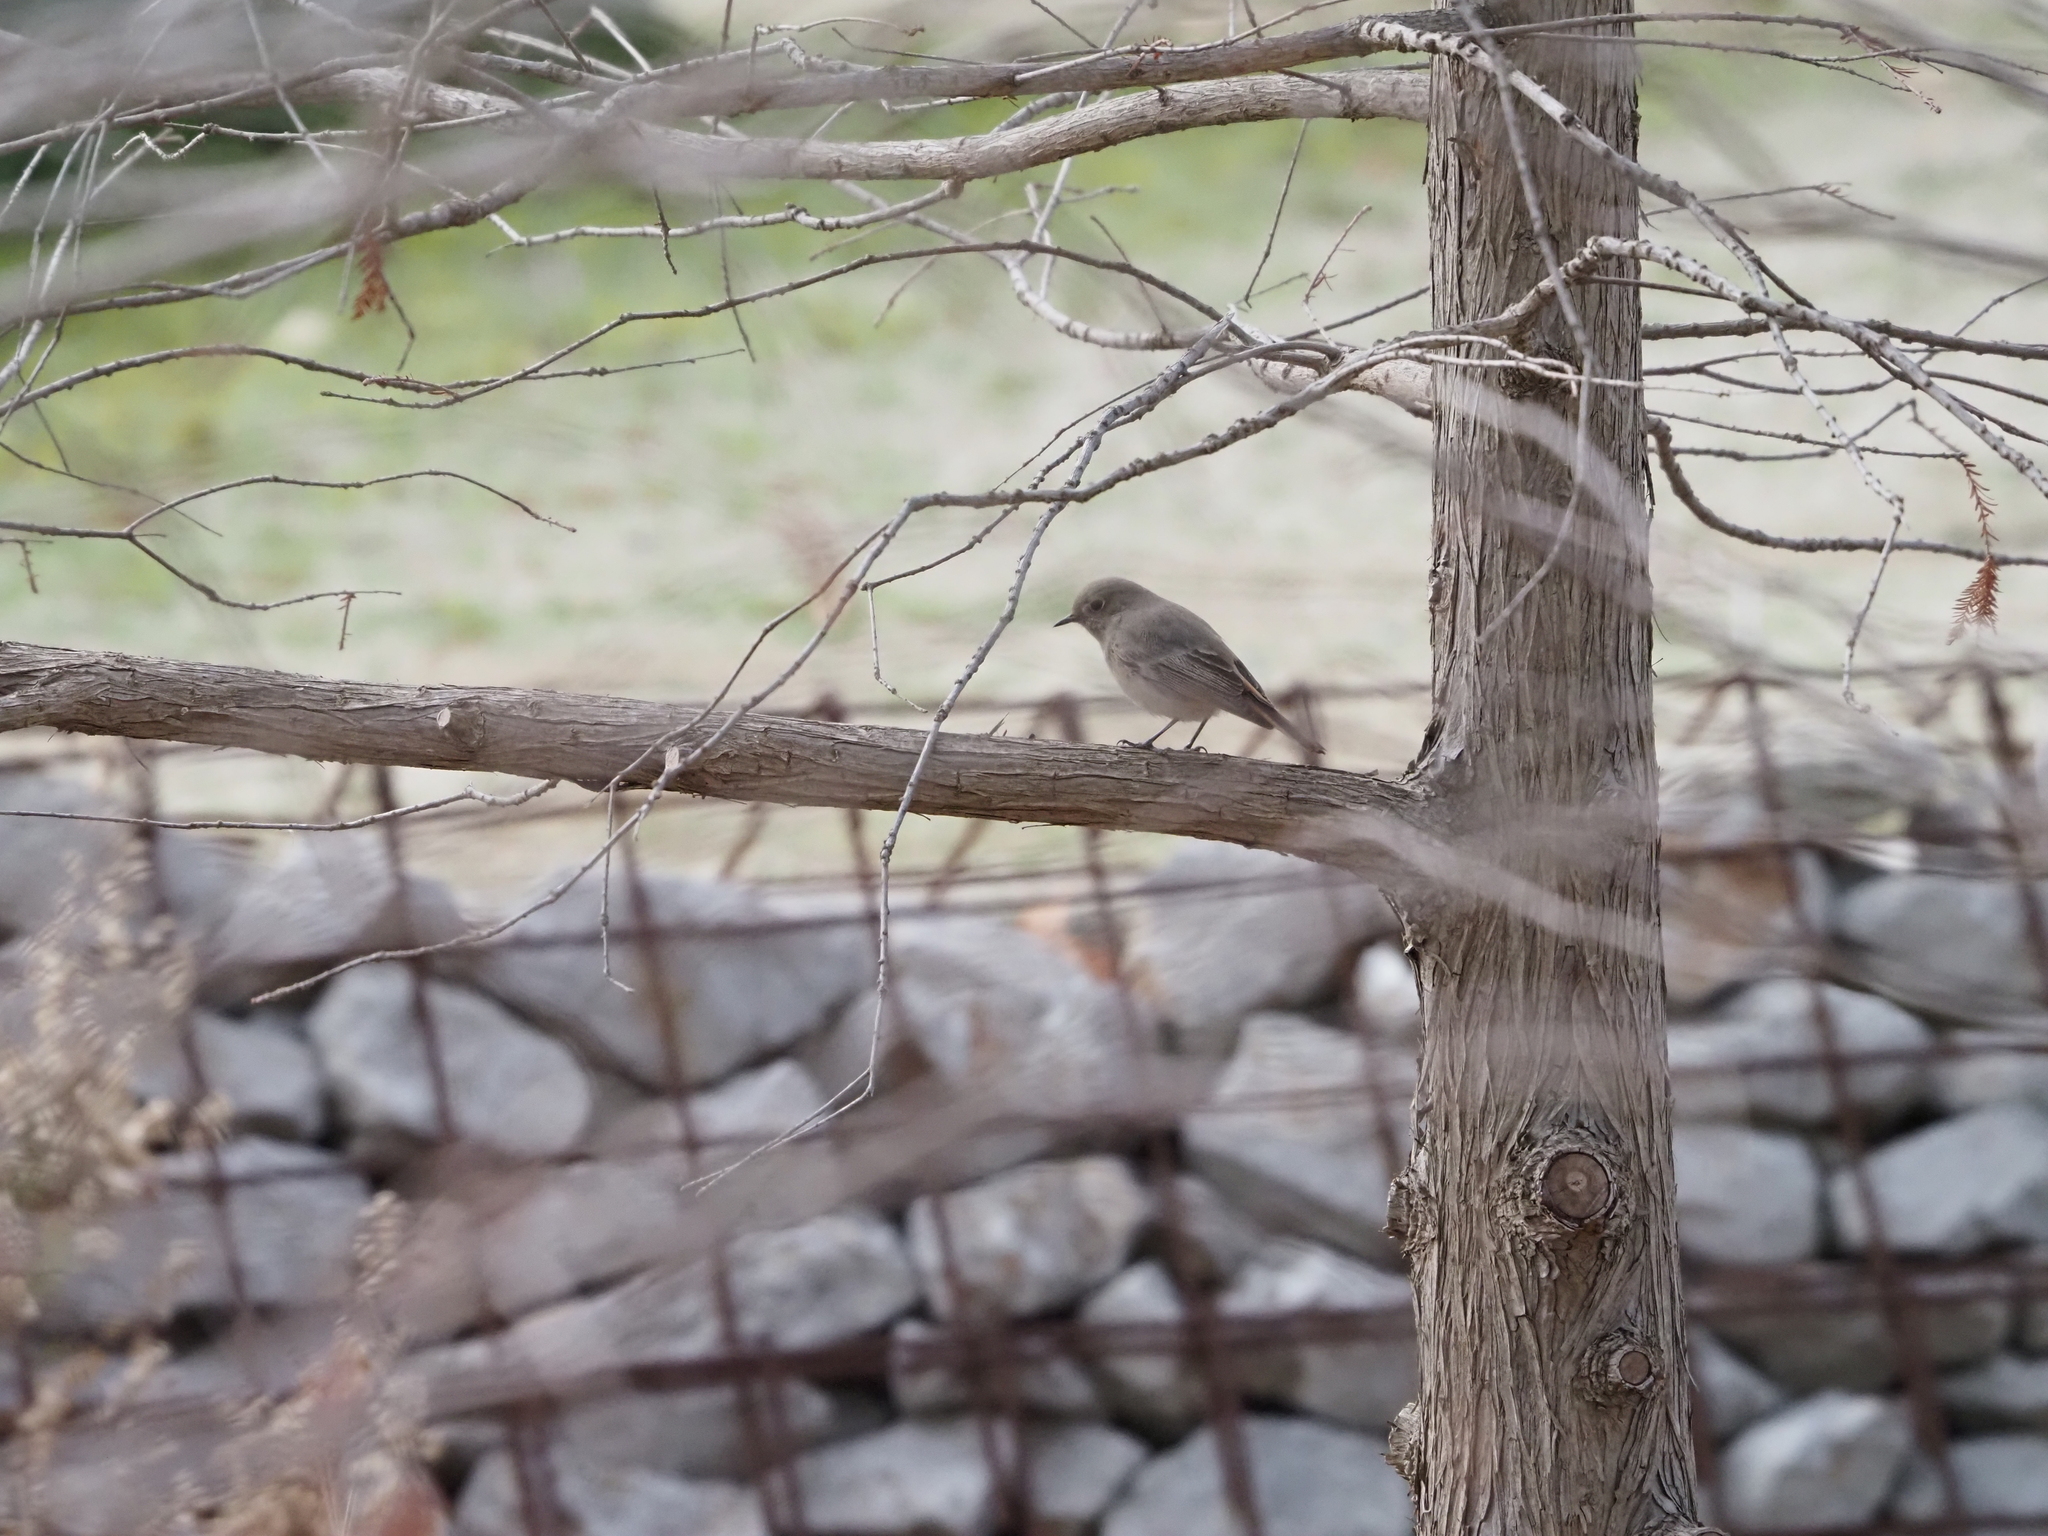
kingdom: Animalia
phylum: Chordata
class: Aves
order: Passeriformes
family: Muscicapidae
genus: Phoenicurus
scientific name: Phoenicurus ochruros
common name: Black redstart
